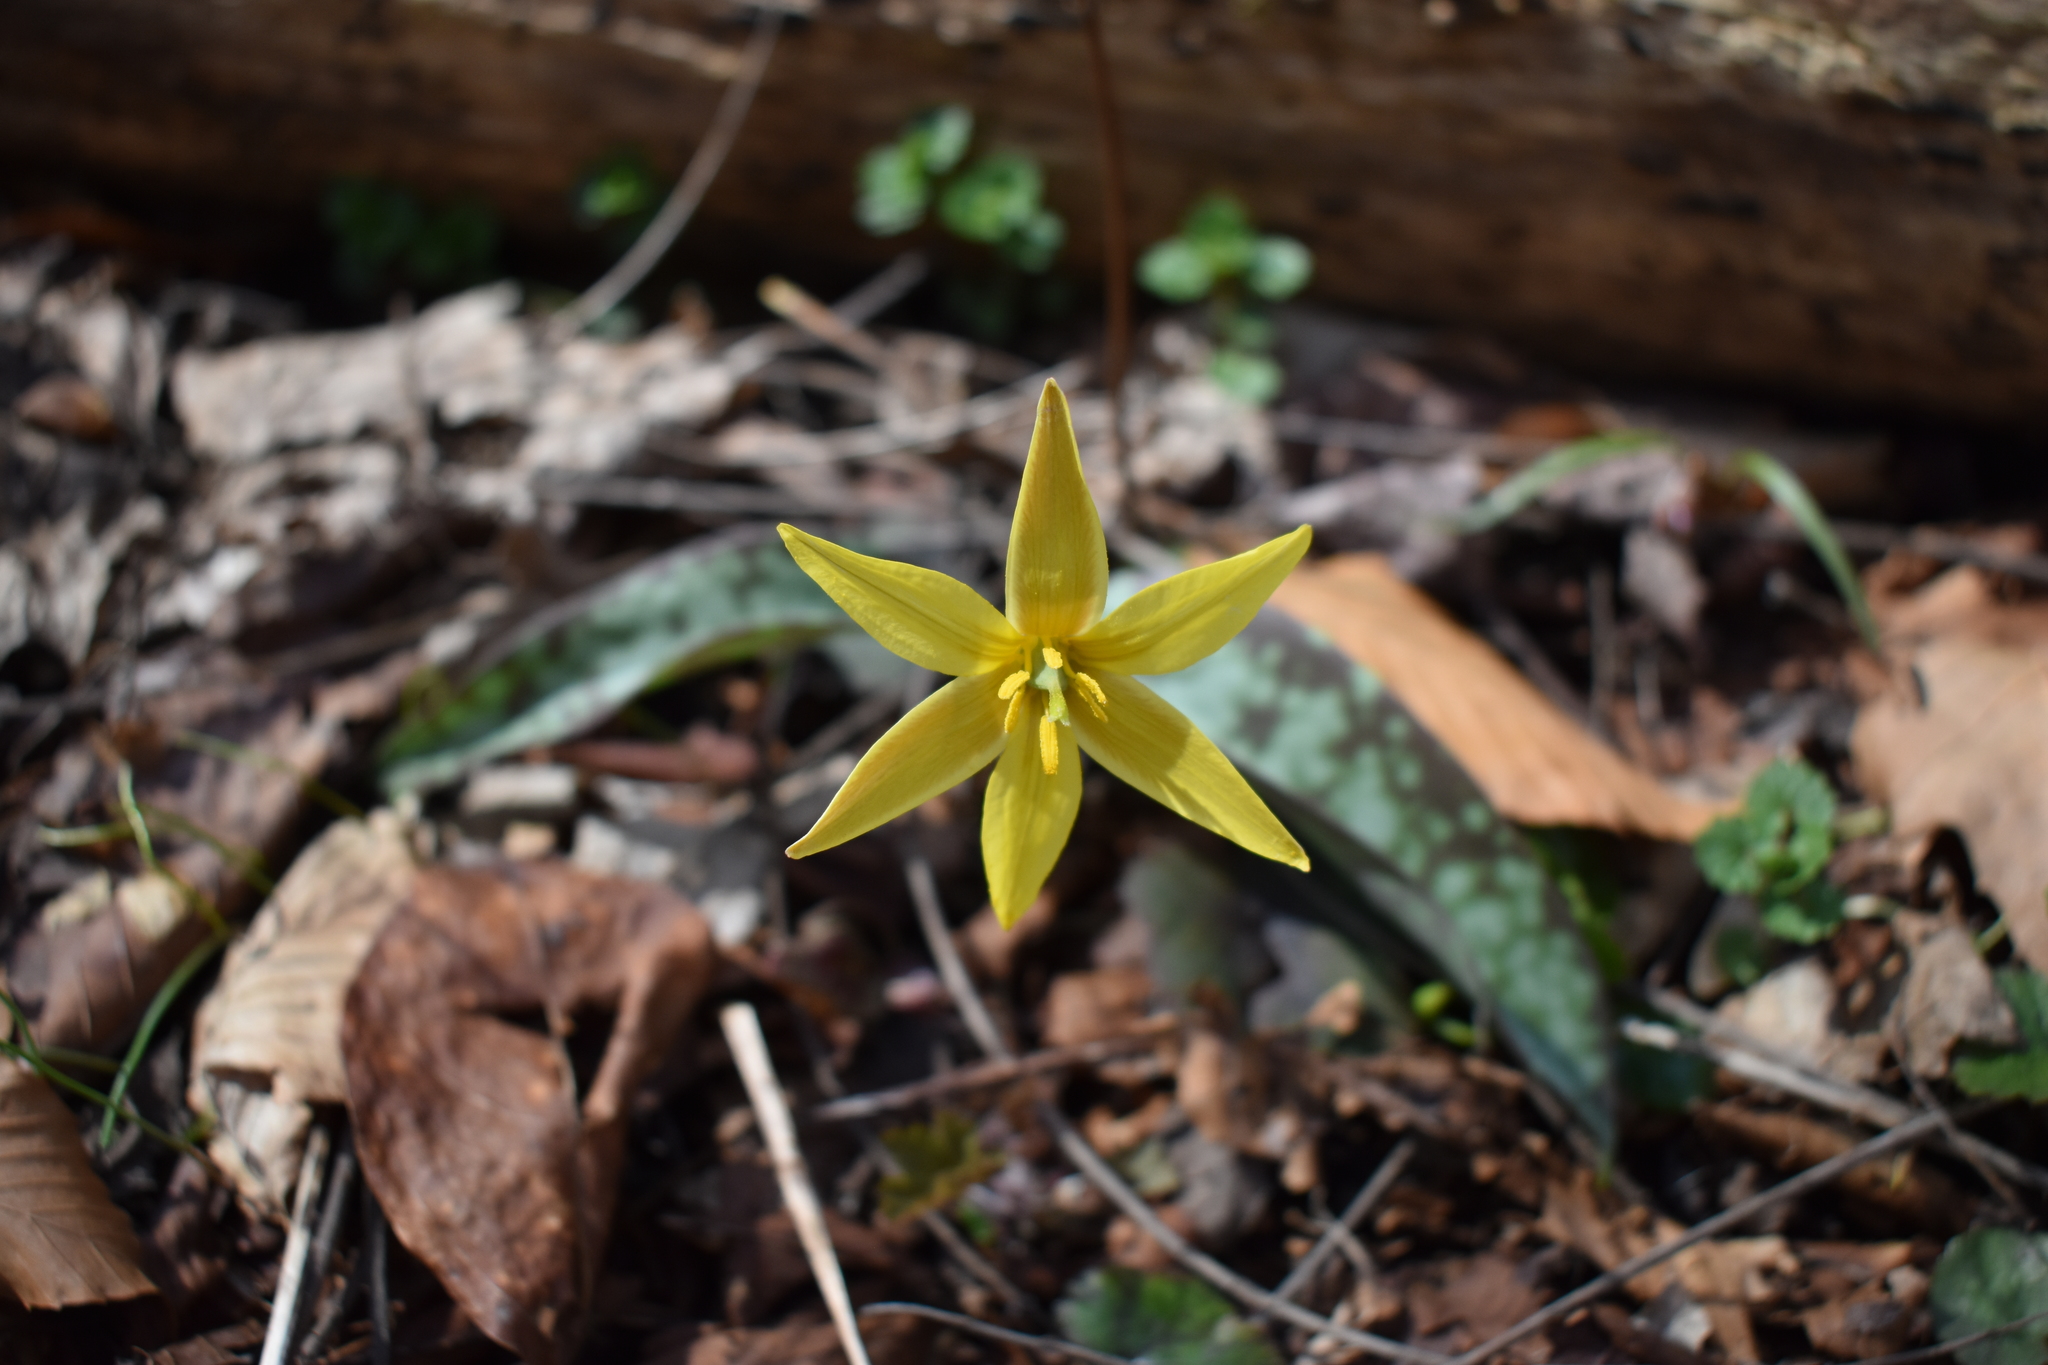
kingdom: Plantae
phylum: Tracheophyta
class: Liliopsida
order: Liliales
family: Liliaceae
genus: Erythronium
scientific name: Erythronium rostratum
